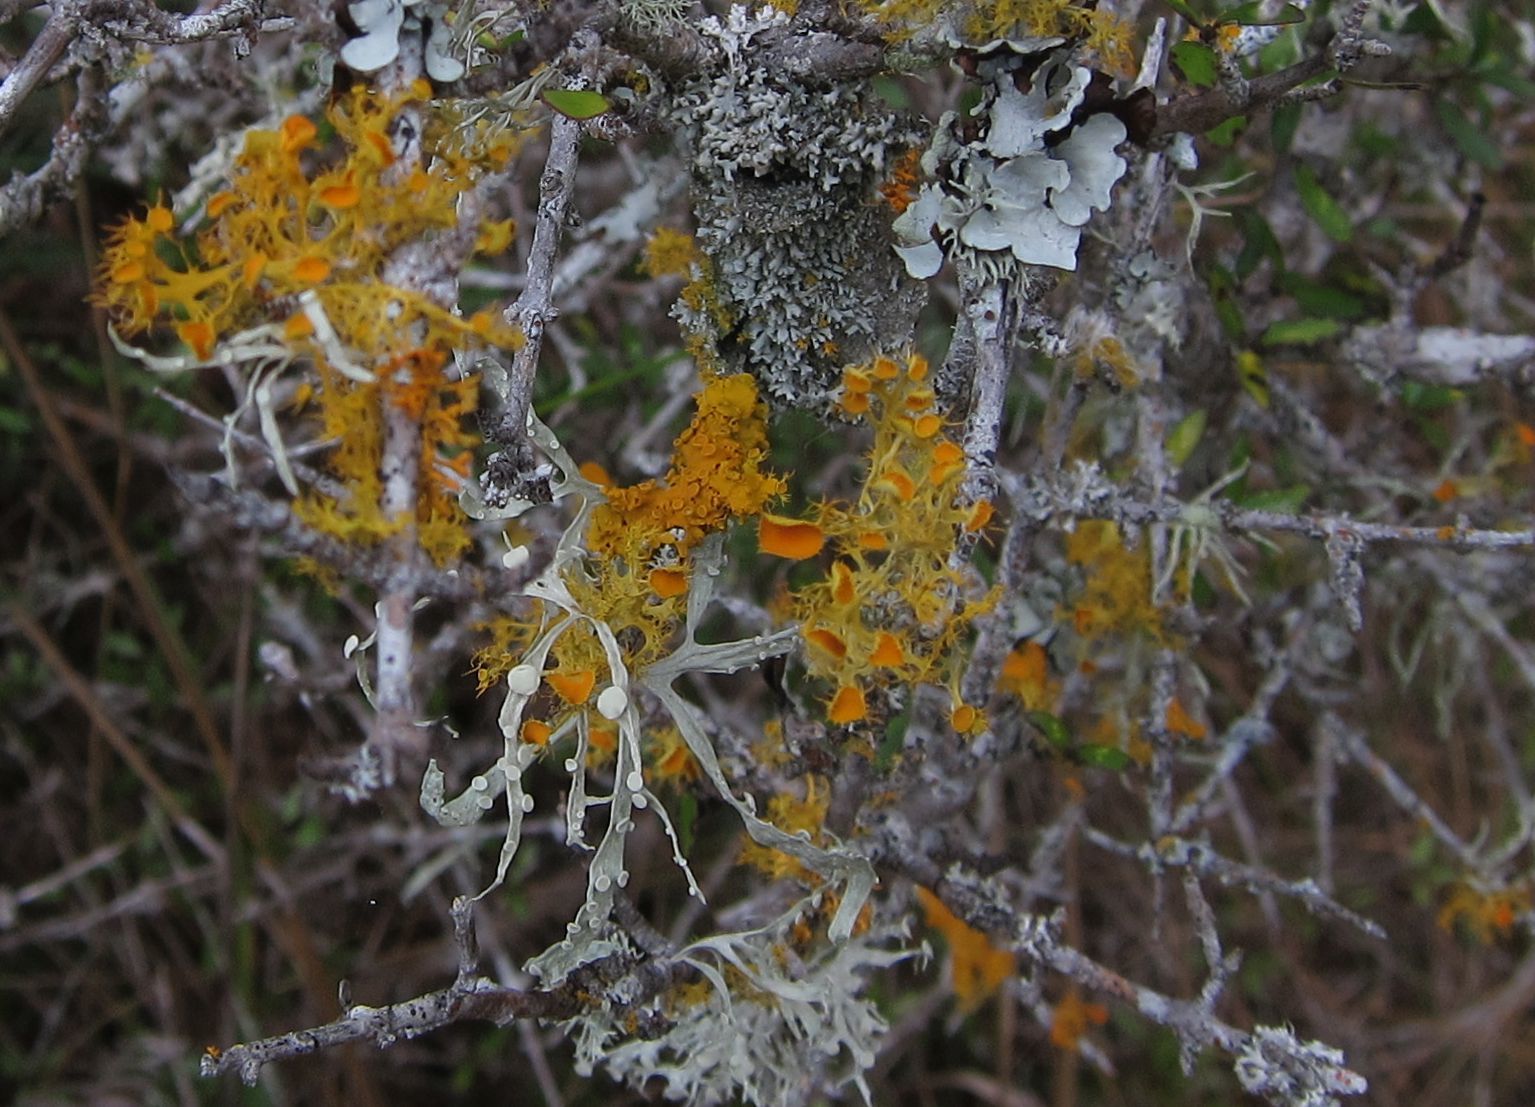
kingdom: Fungi
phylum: Ascomycota
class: Lecanoromycetes
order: Teloschistales
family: Teloschistaceae
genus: Niorma
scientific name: Niorma chrysophthalma
